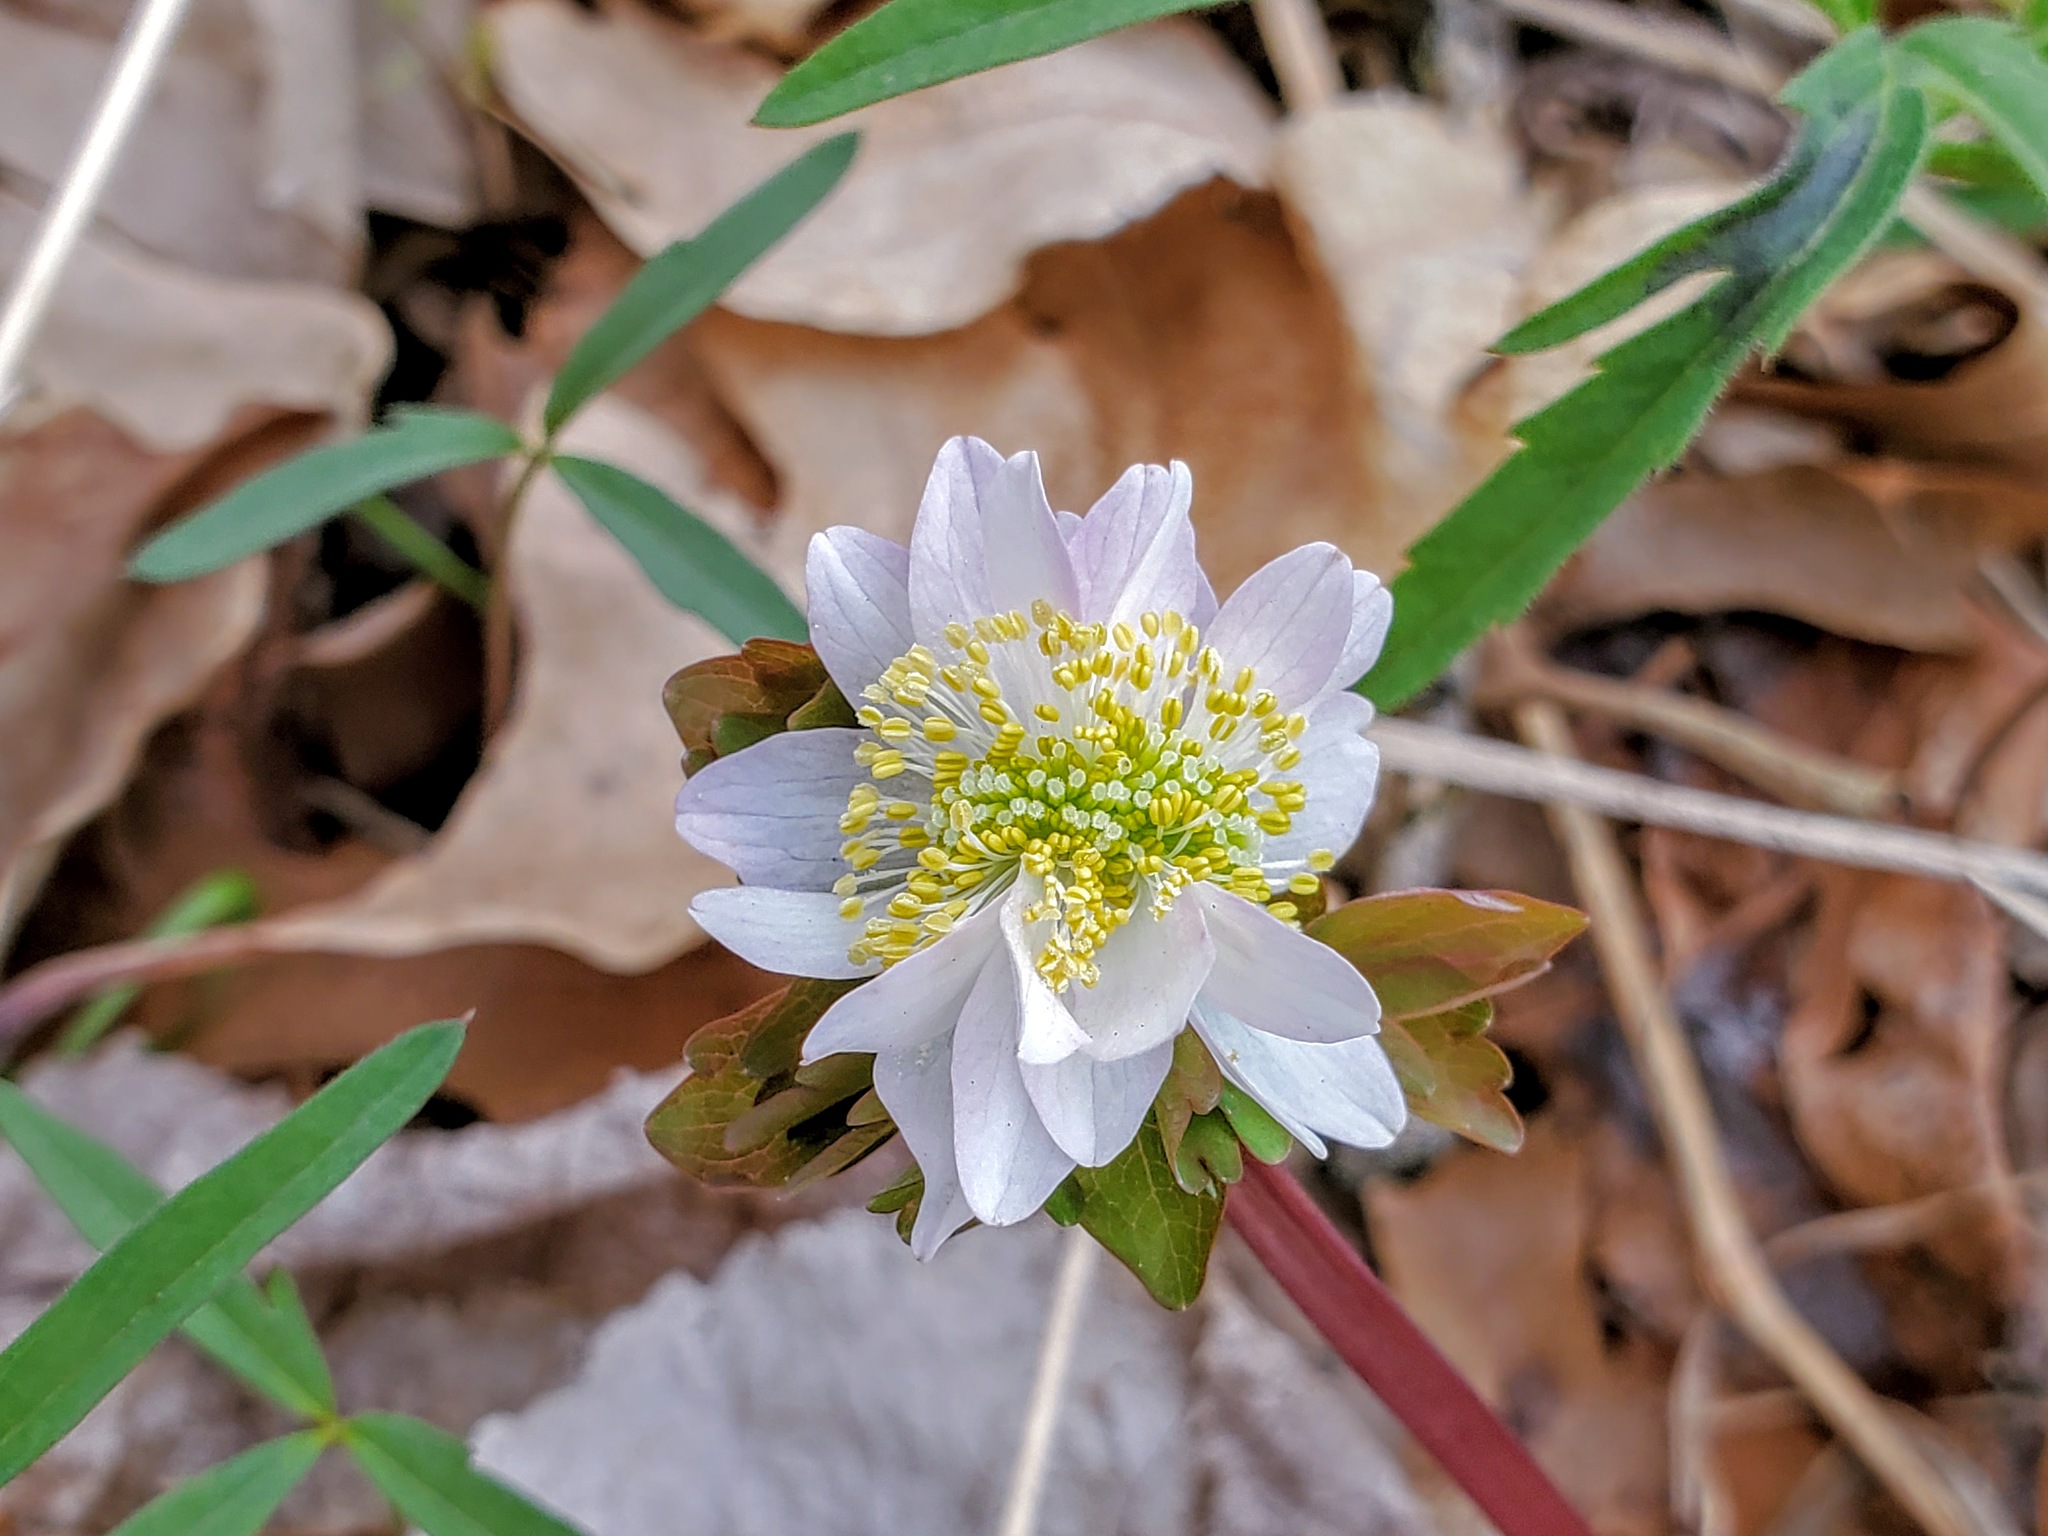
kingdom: Plantae
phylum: Tracheophyta
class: Magnoliopsida
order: Ranunculales
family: Ranunculaceae
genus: Thalictrum
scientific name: Thalictrum thalictroides
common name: Rue-anemone
